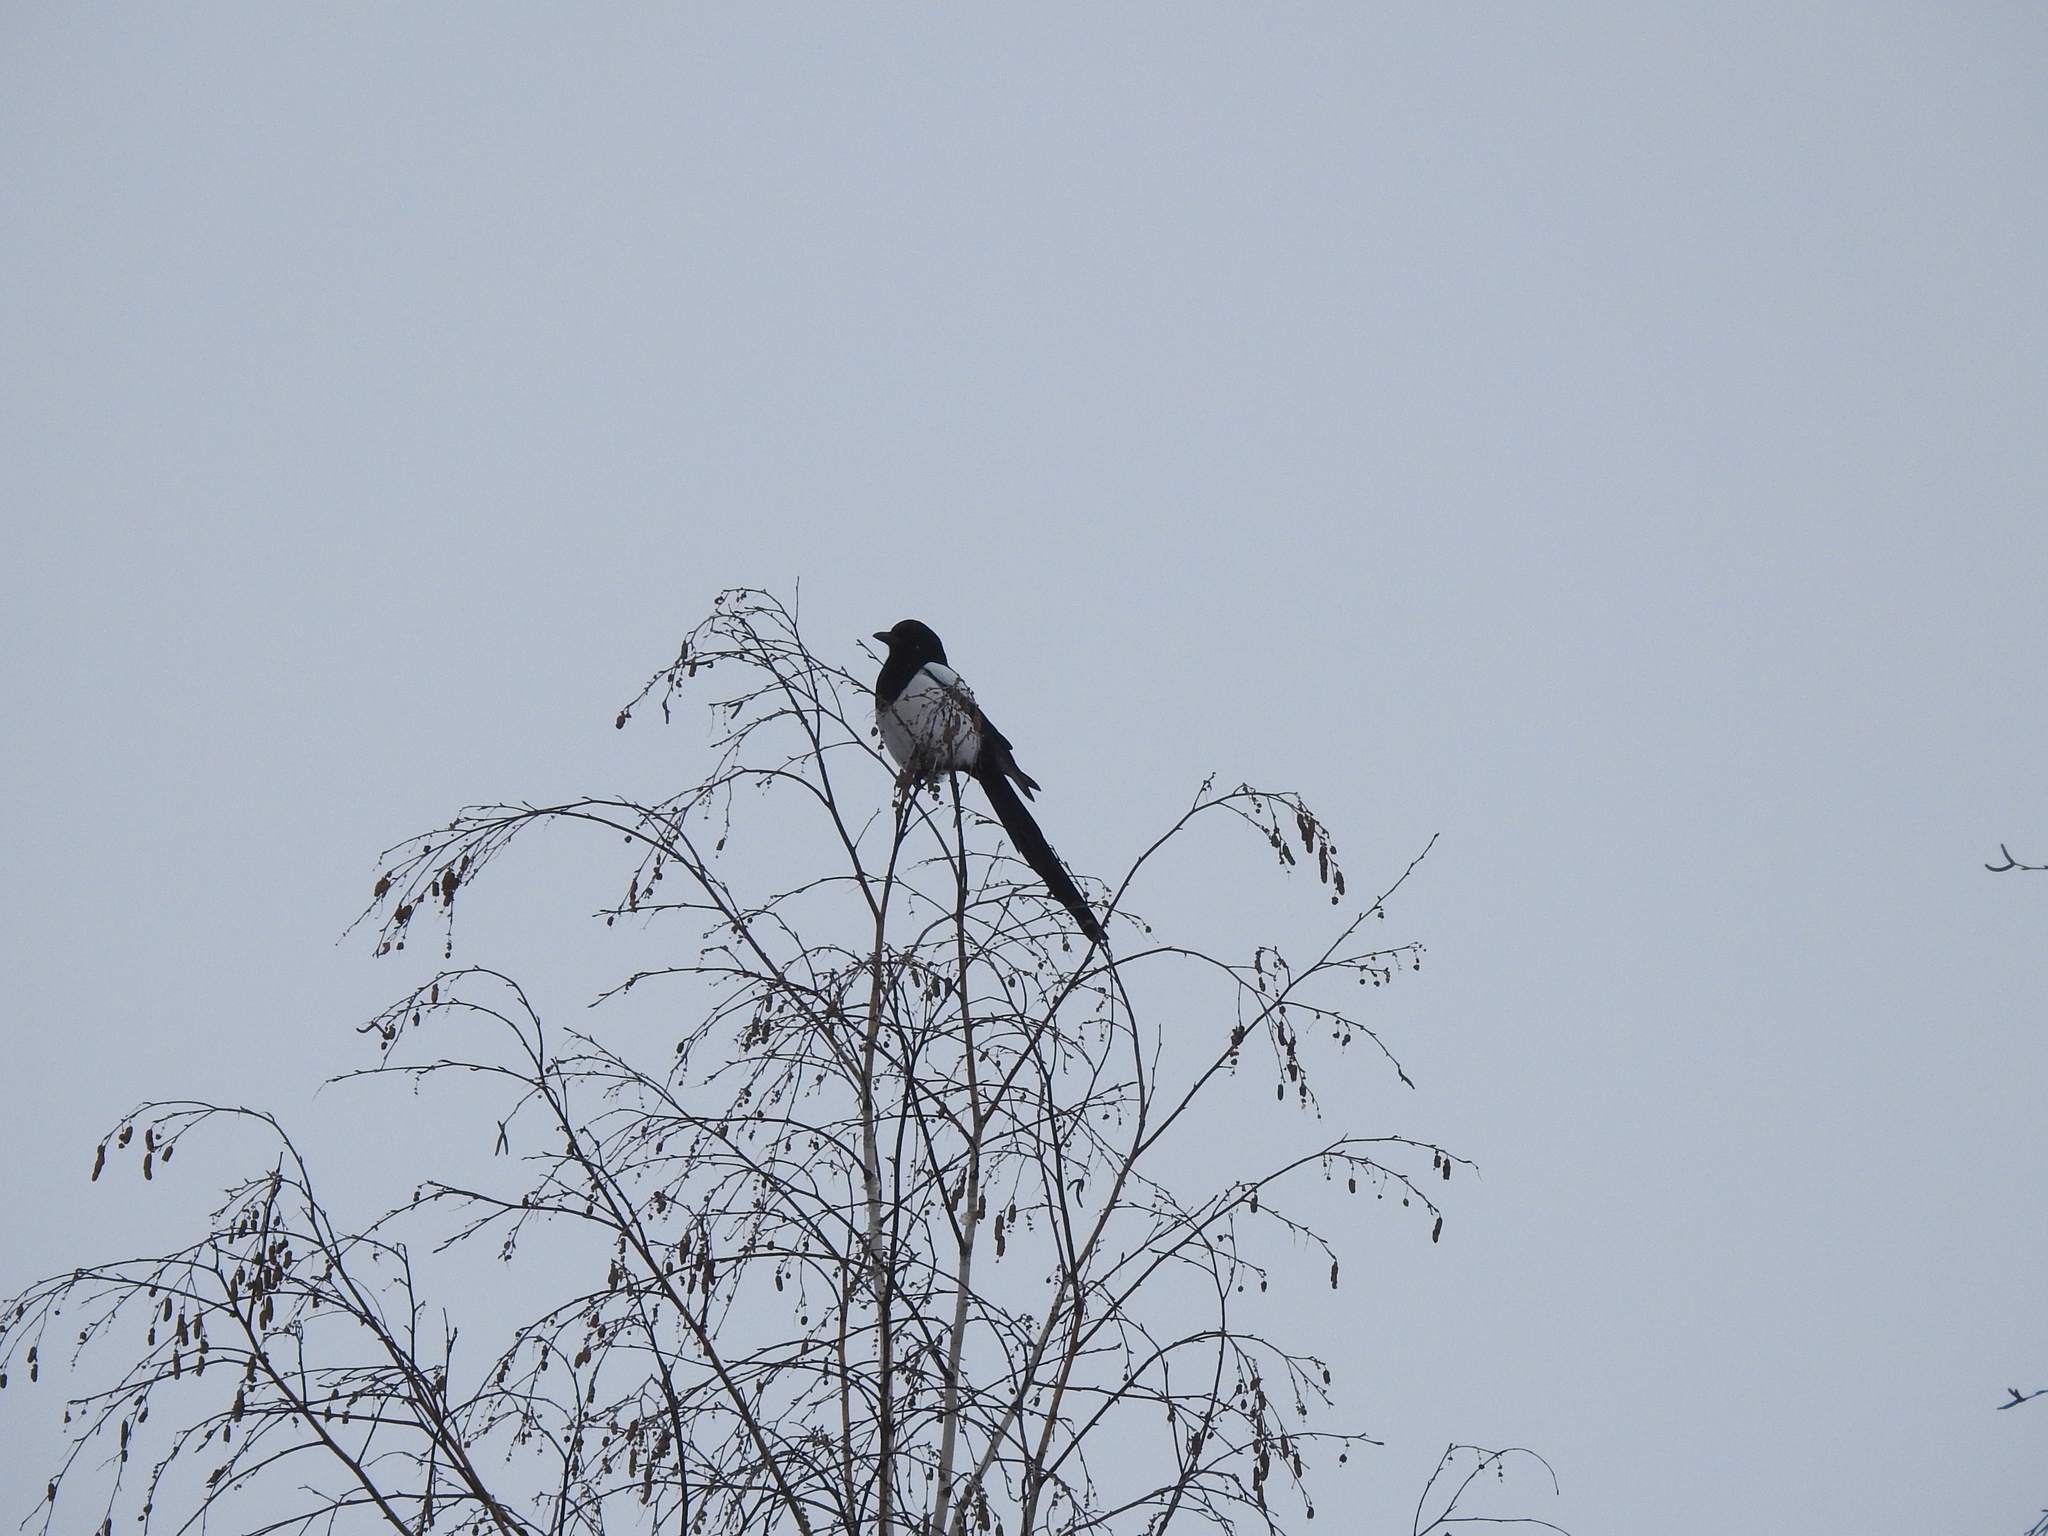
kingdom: Animalia
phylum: Chordata
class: Aves
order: Passeriformes
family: Corvidae
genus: Pica
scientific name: Pica pica
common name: Eurasian magpie
